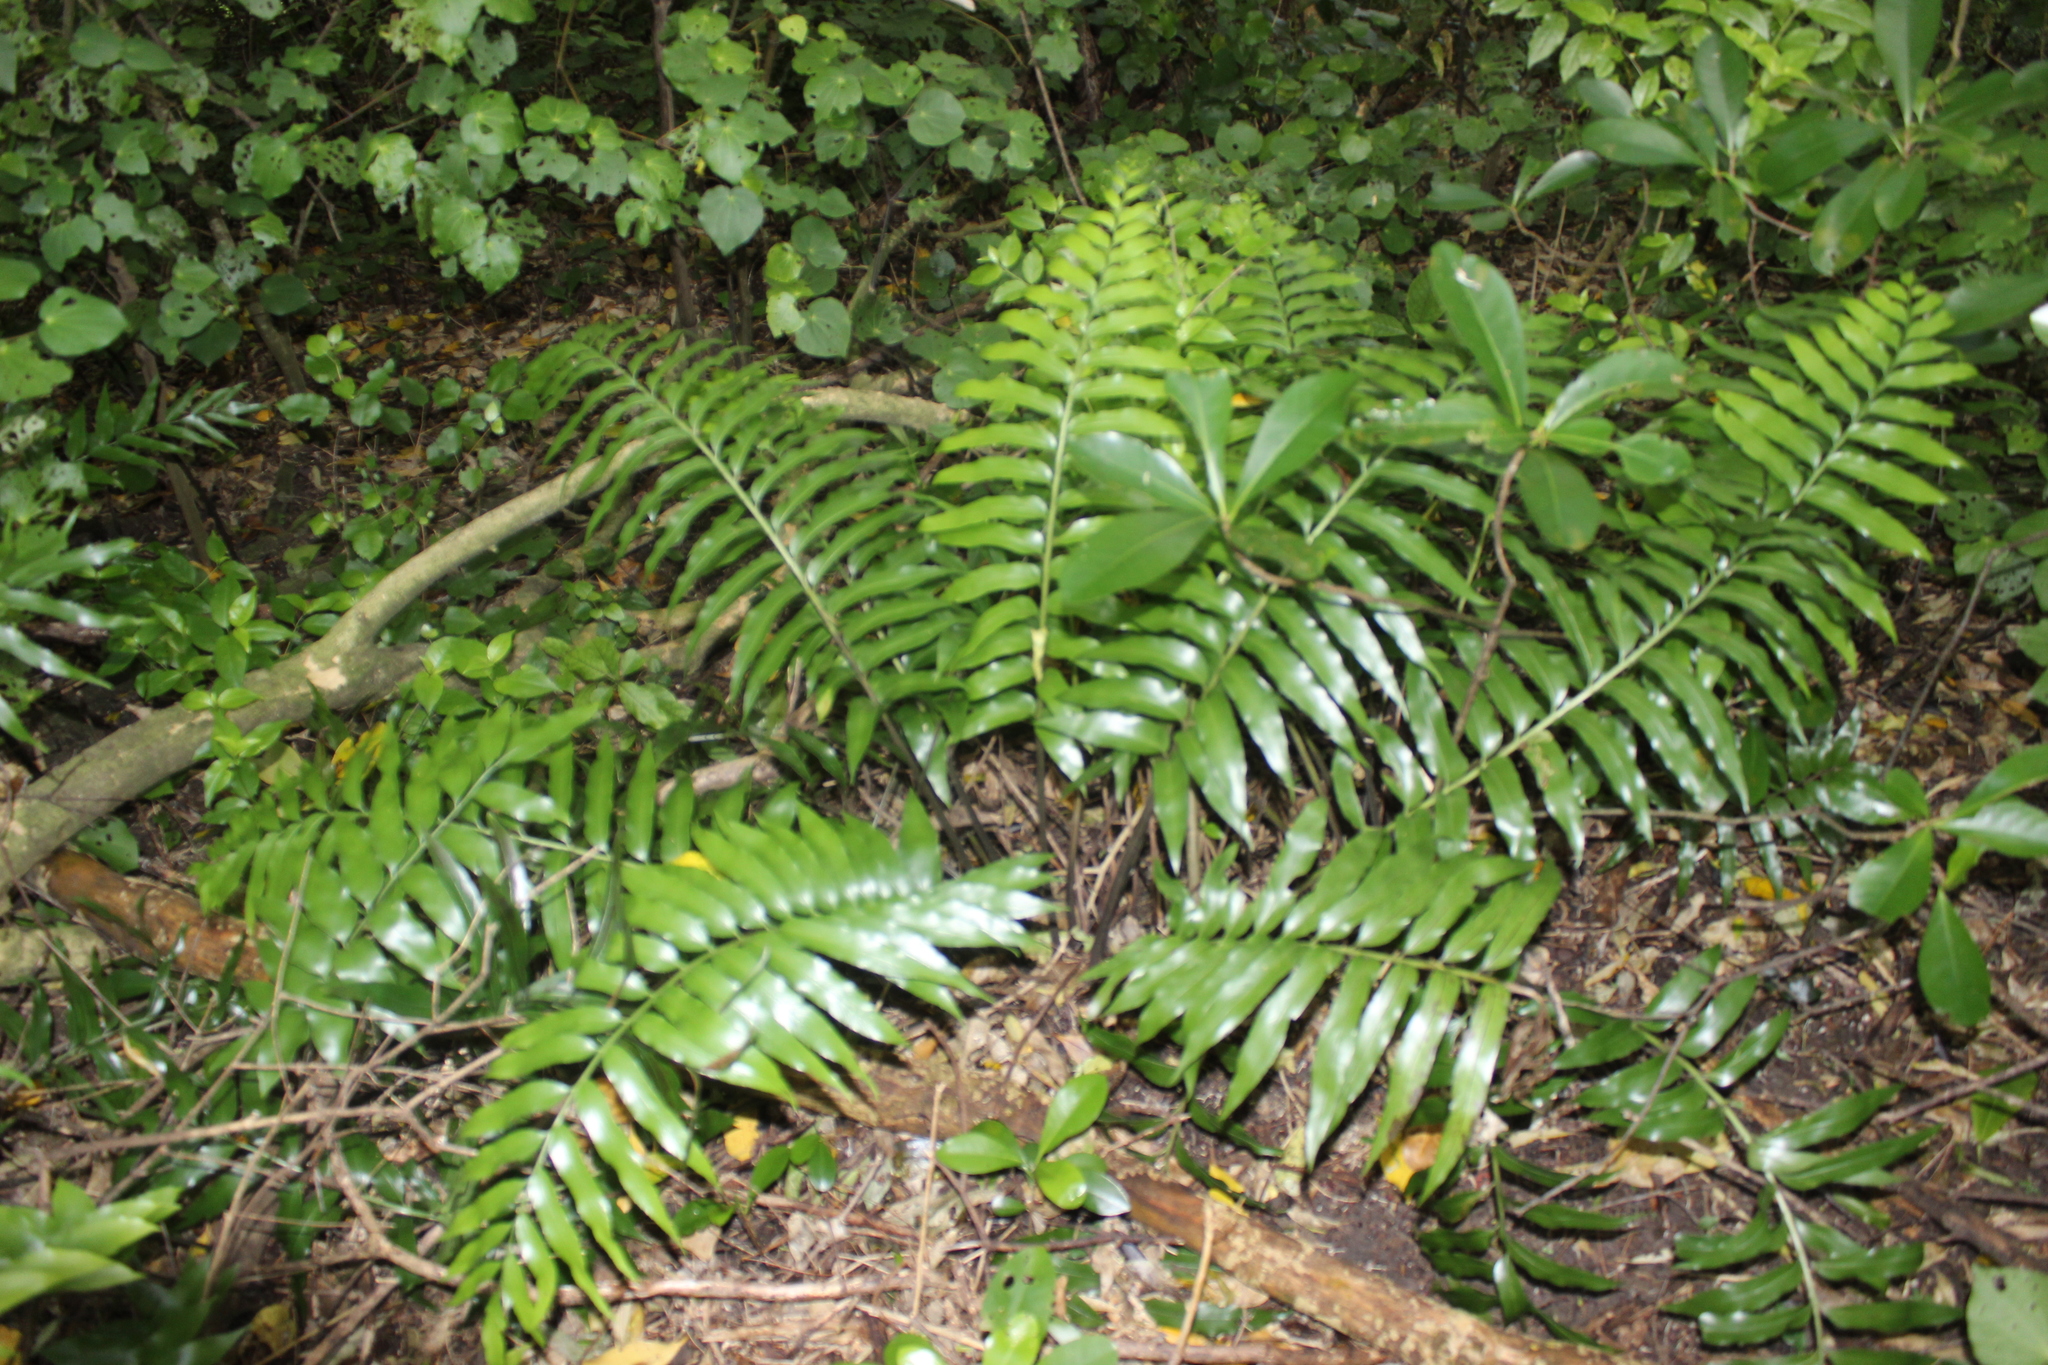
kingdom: Plantae
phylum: Tracheophyta
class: Polypodiopsida
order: Polypodiales
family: Aspleniaceae
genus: Asplenium
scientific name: Asplenium oblongifolium
